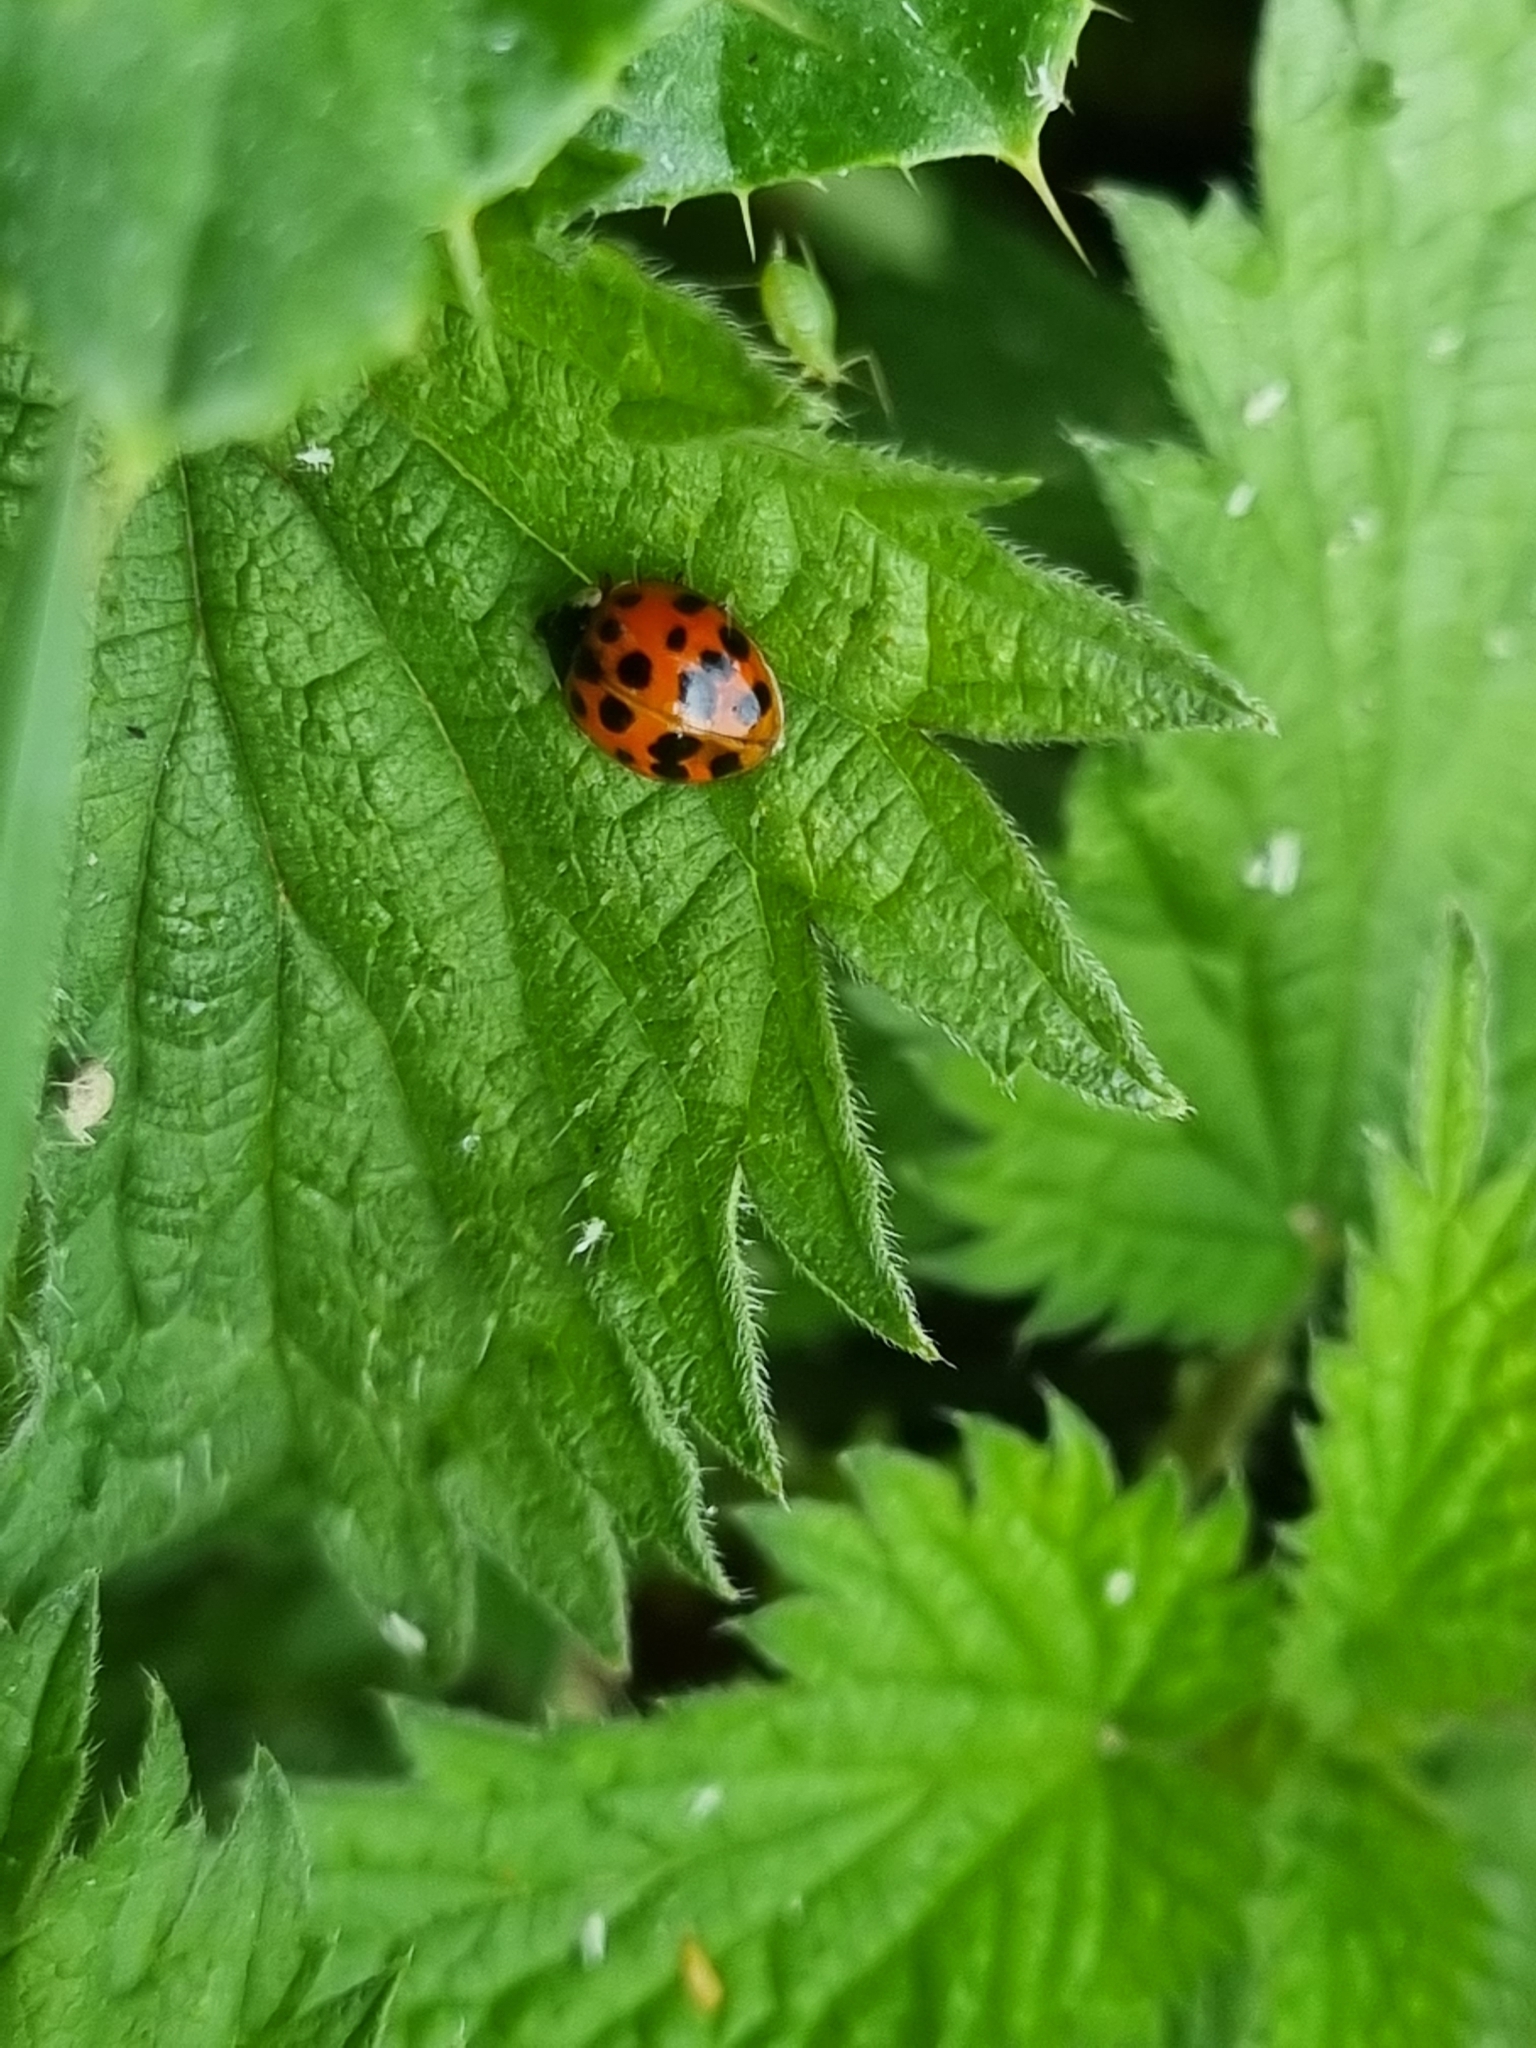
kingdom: Animalia
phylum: Arthropoda
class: Insecta
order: Coleoptera
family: Coccinellidae
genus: Harmonia
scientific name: Harmonia axyridis
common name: Harlequin ladybird
